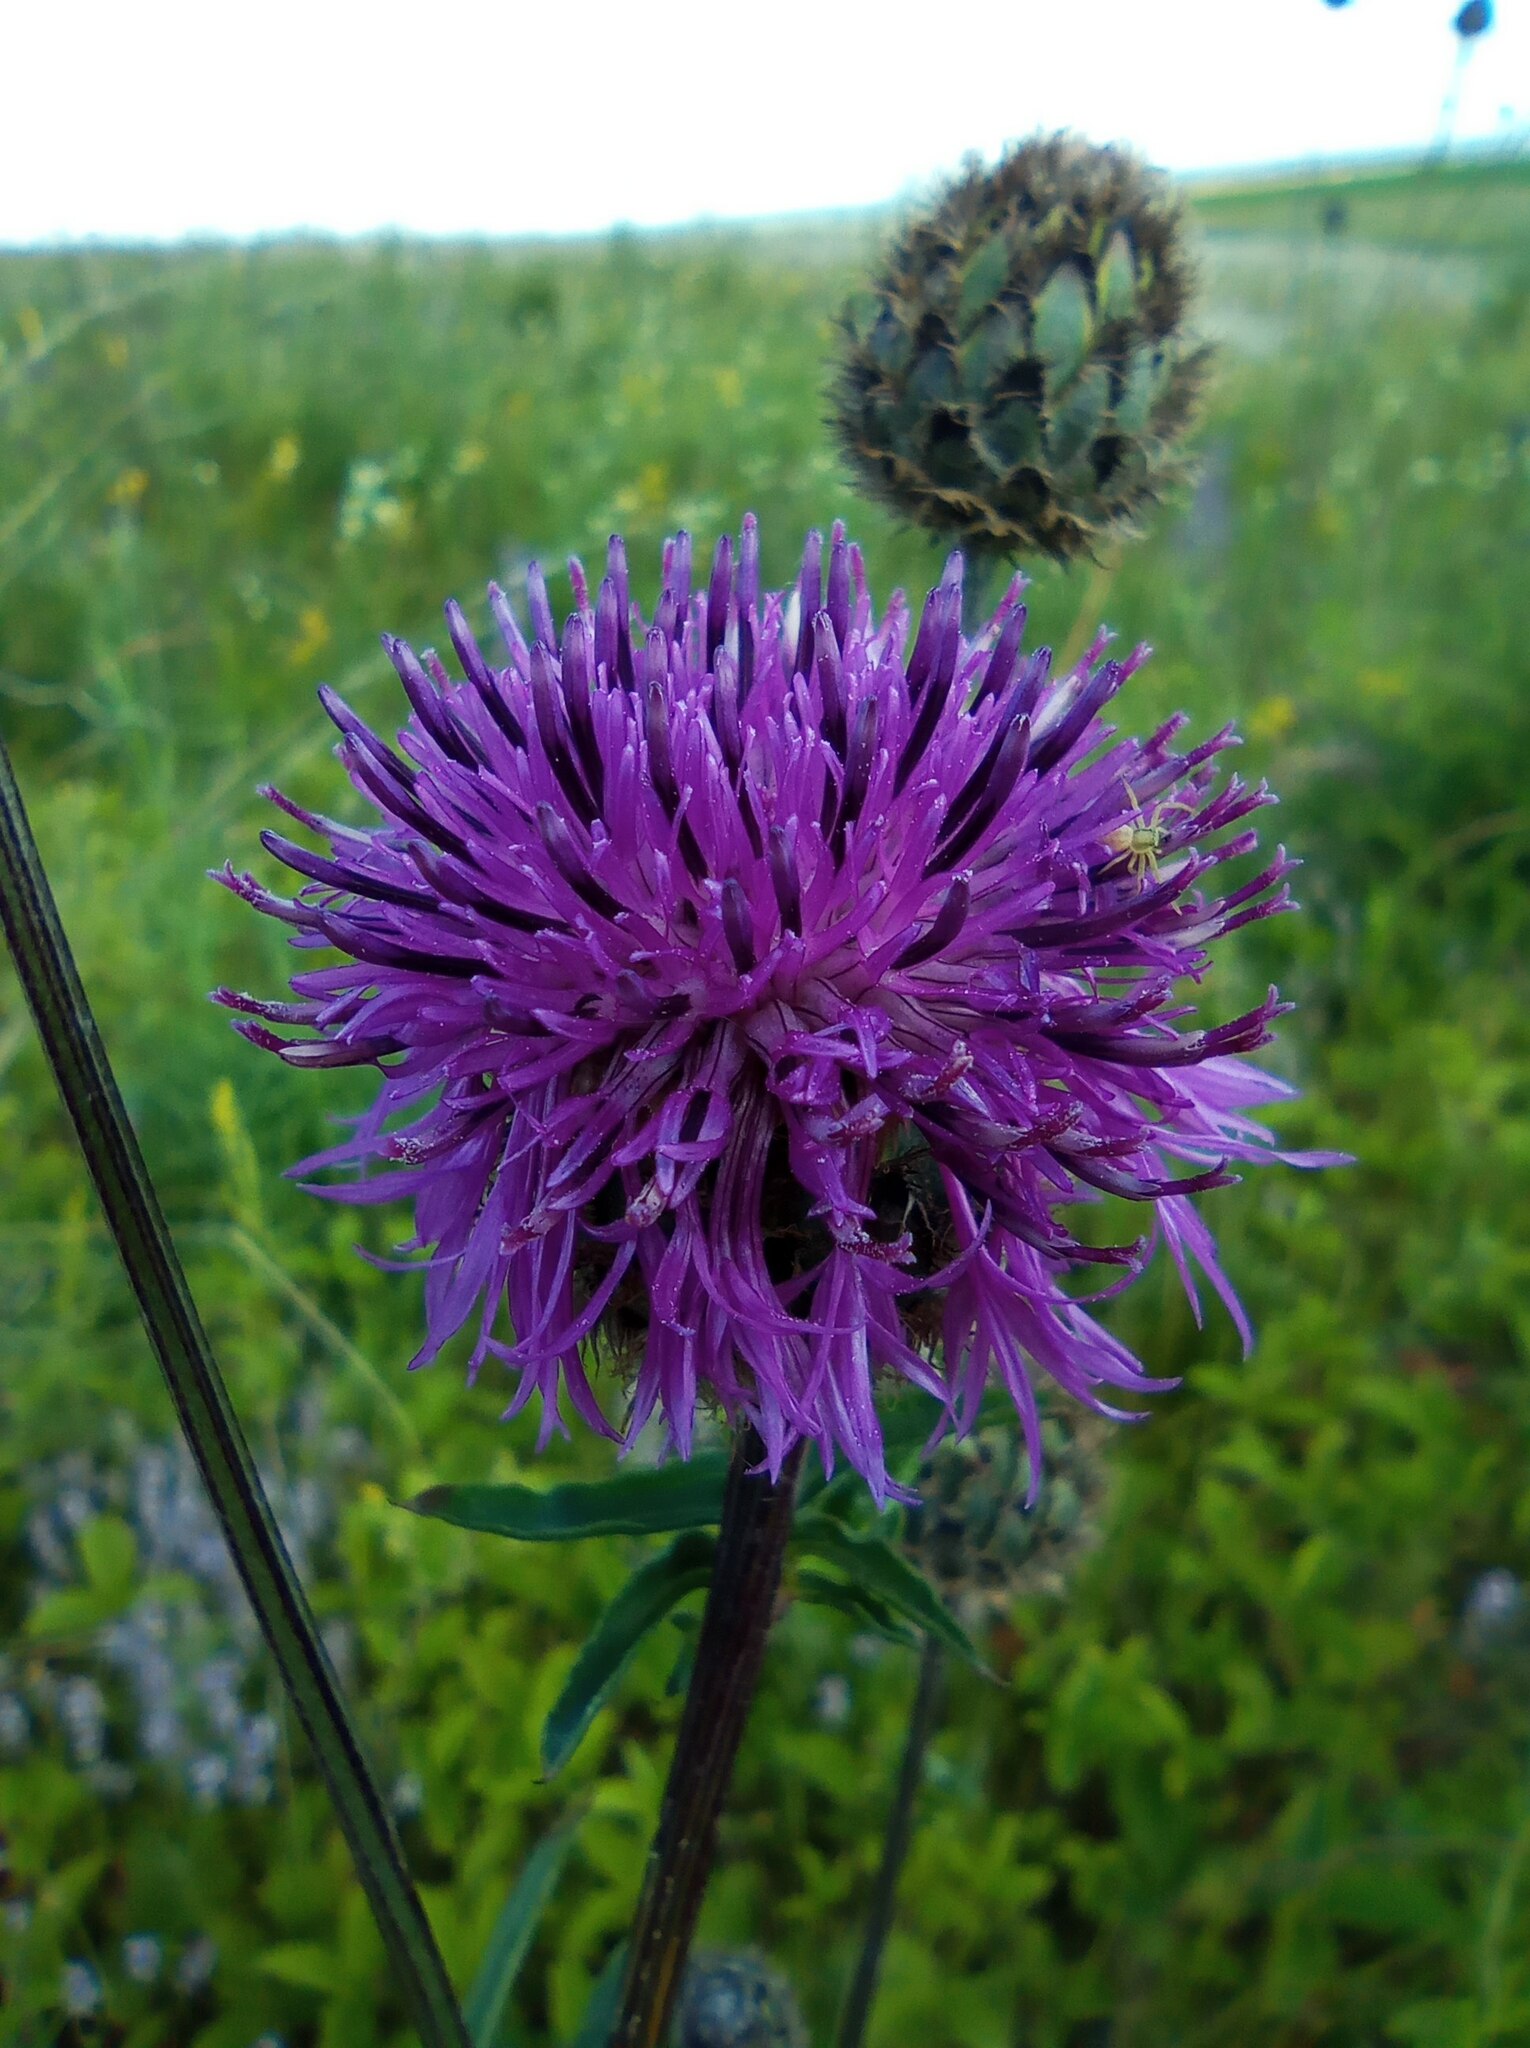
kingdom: Plantae
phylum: Tracheophyta
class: Magnoliopsida
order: Asterales
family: Asteraceae
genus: Centaurea
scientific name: Centaurea scabiosa
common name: Greater knapweed
